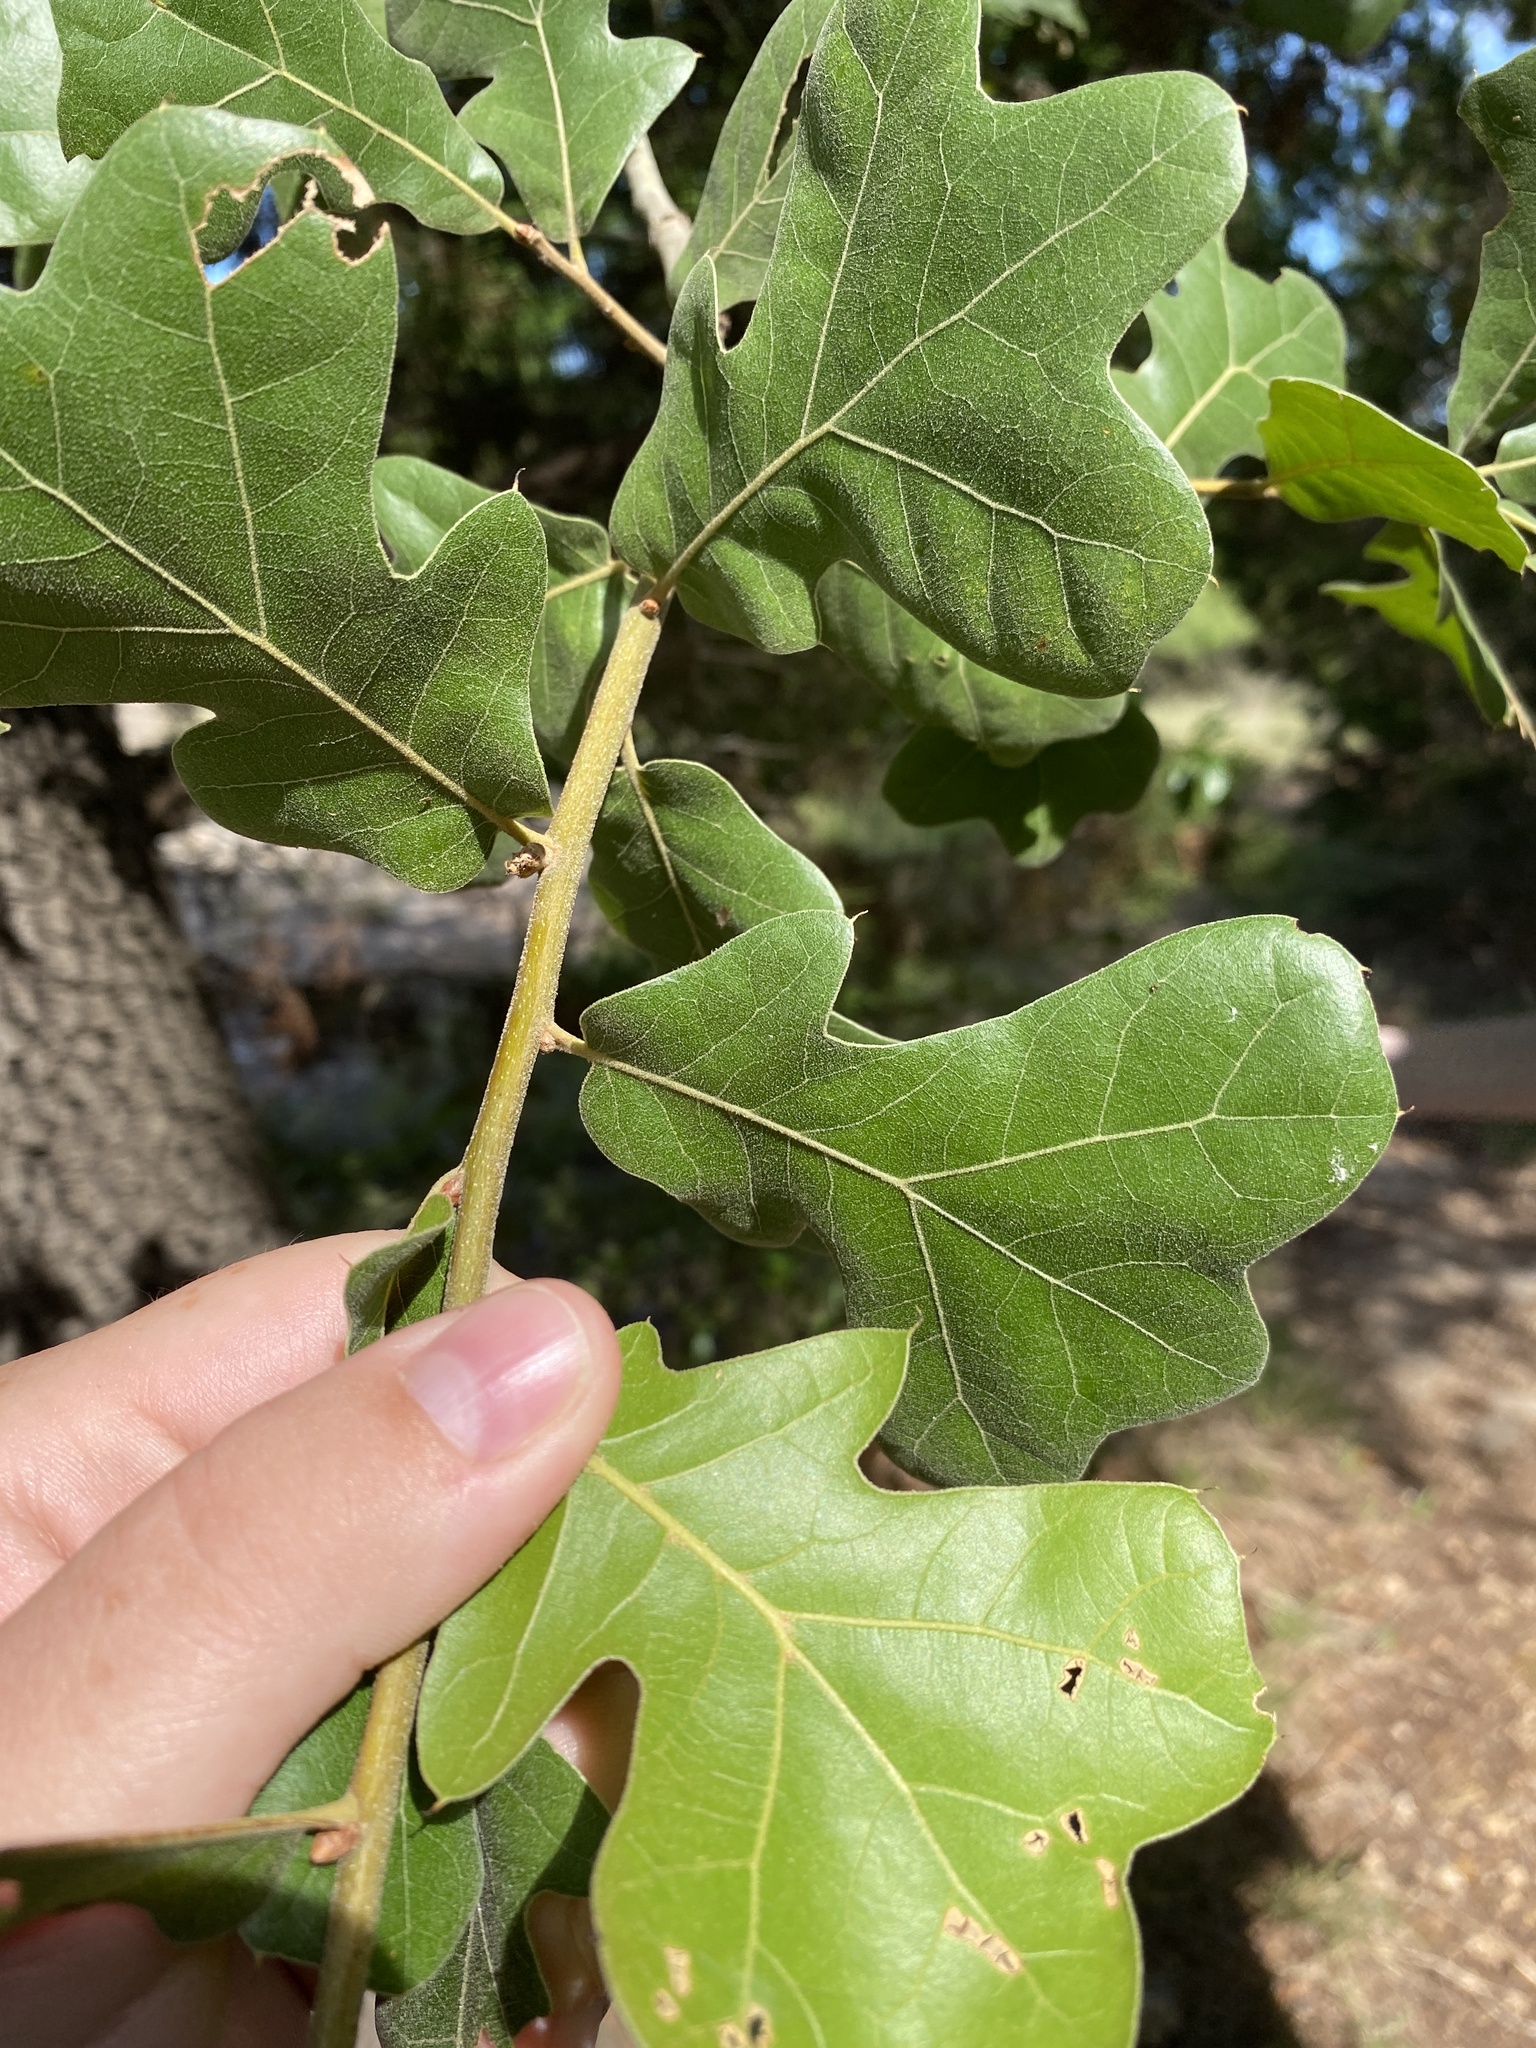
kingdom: Plantae
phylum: Tracheophyta
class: Magnoliopsida
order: Fagales
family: Fagaceae
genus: Quercus
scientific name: Quercus marilandica
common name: Blackjack oak
